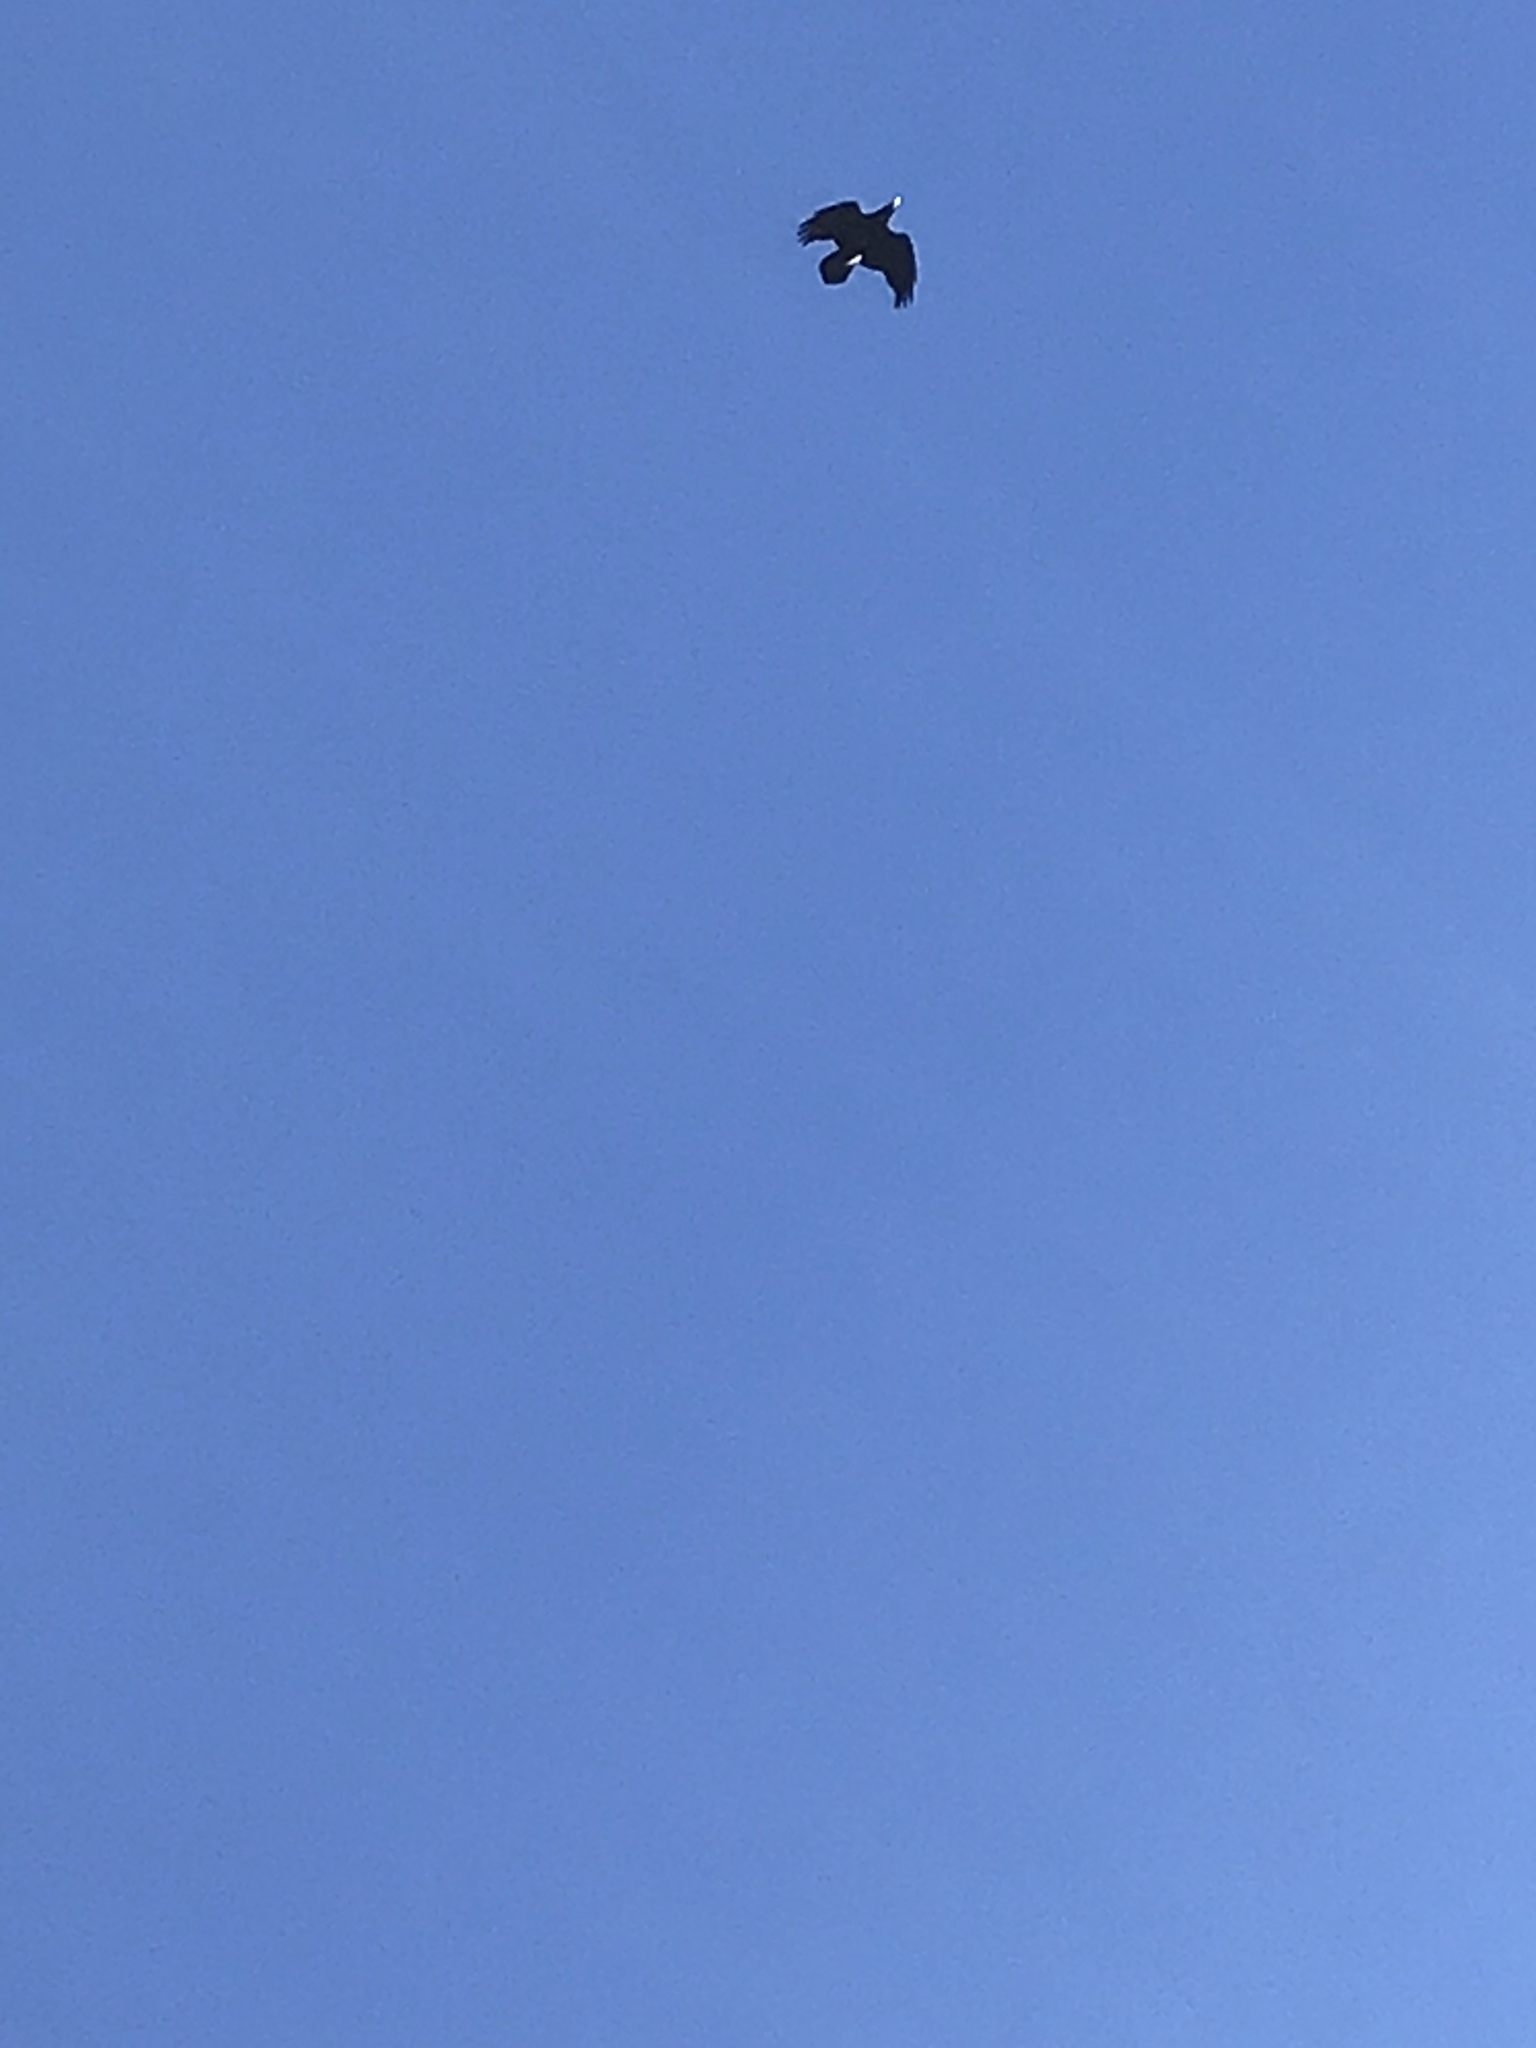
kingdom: Animalia
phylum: Chordata
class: Aves
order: Passeriformes
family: Corvidae
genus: Corvus
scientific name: Corvus corax
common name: Common raven
